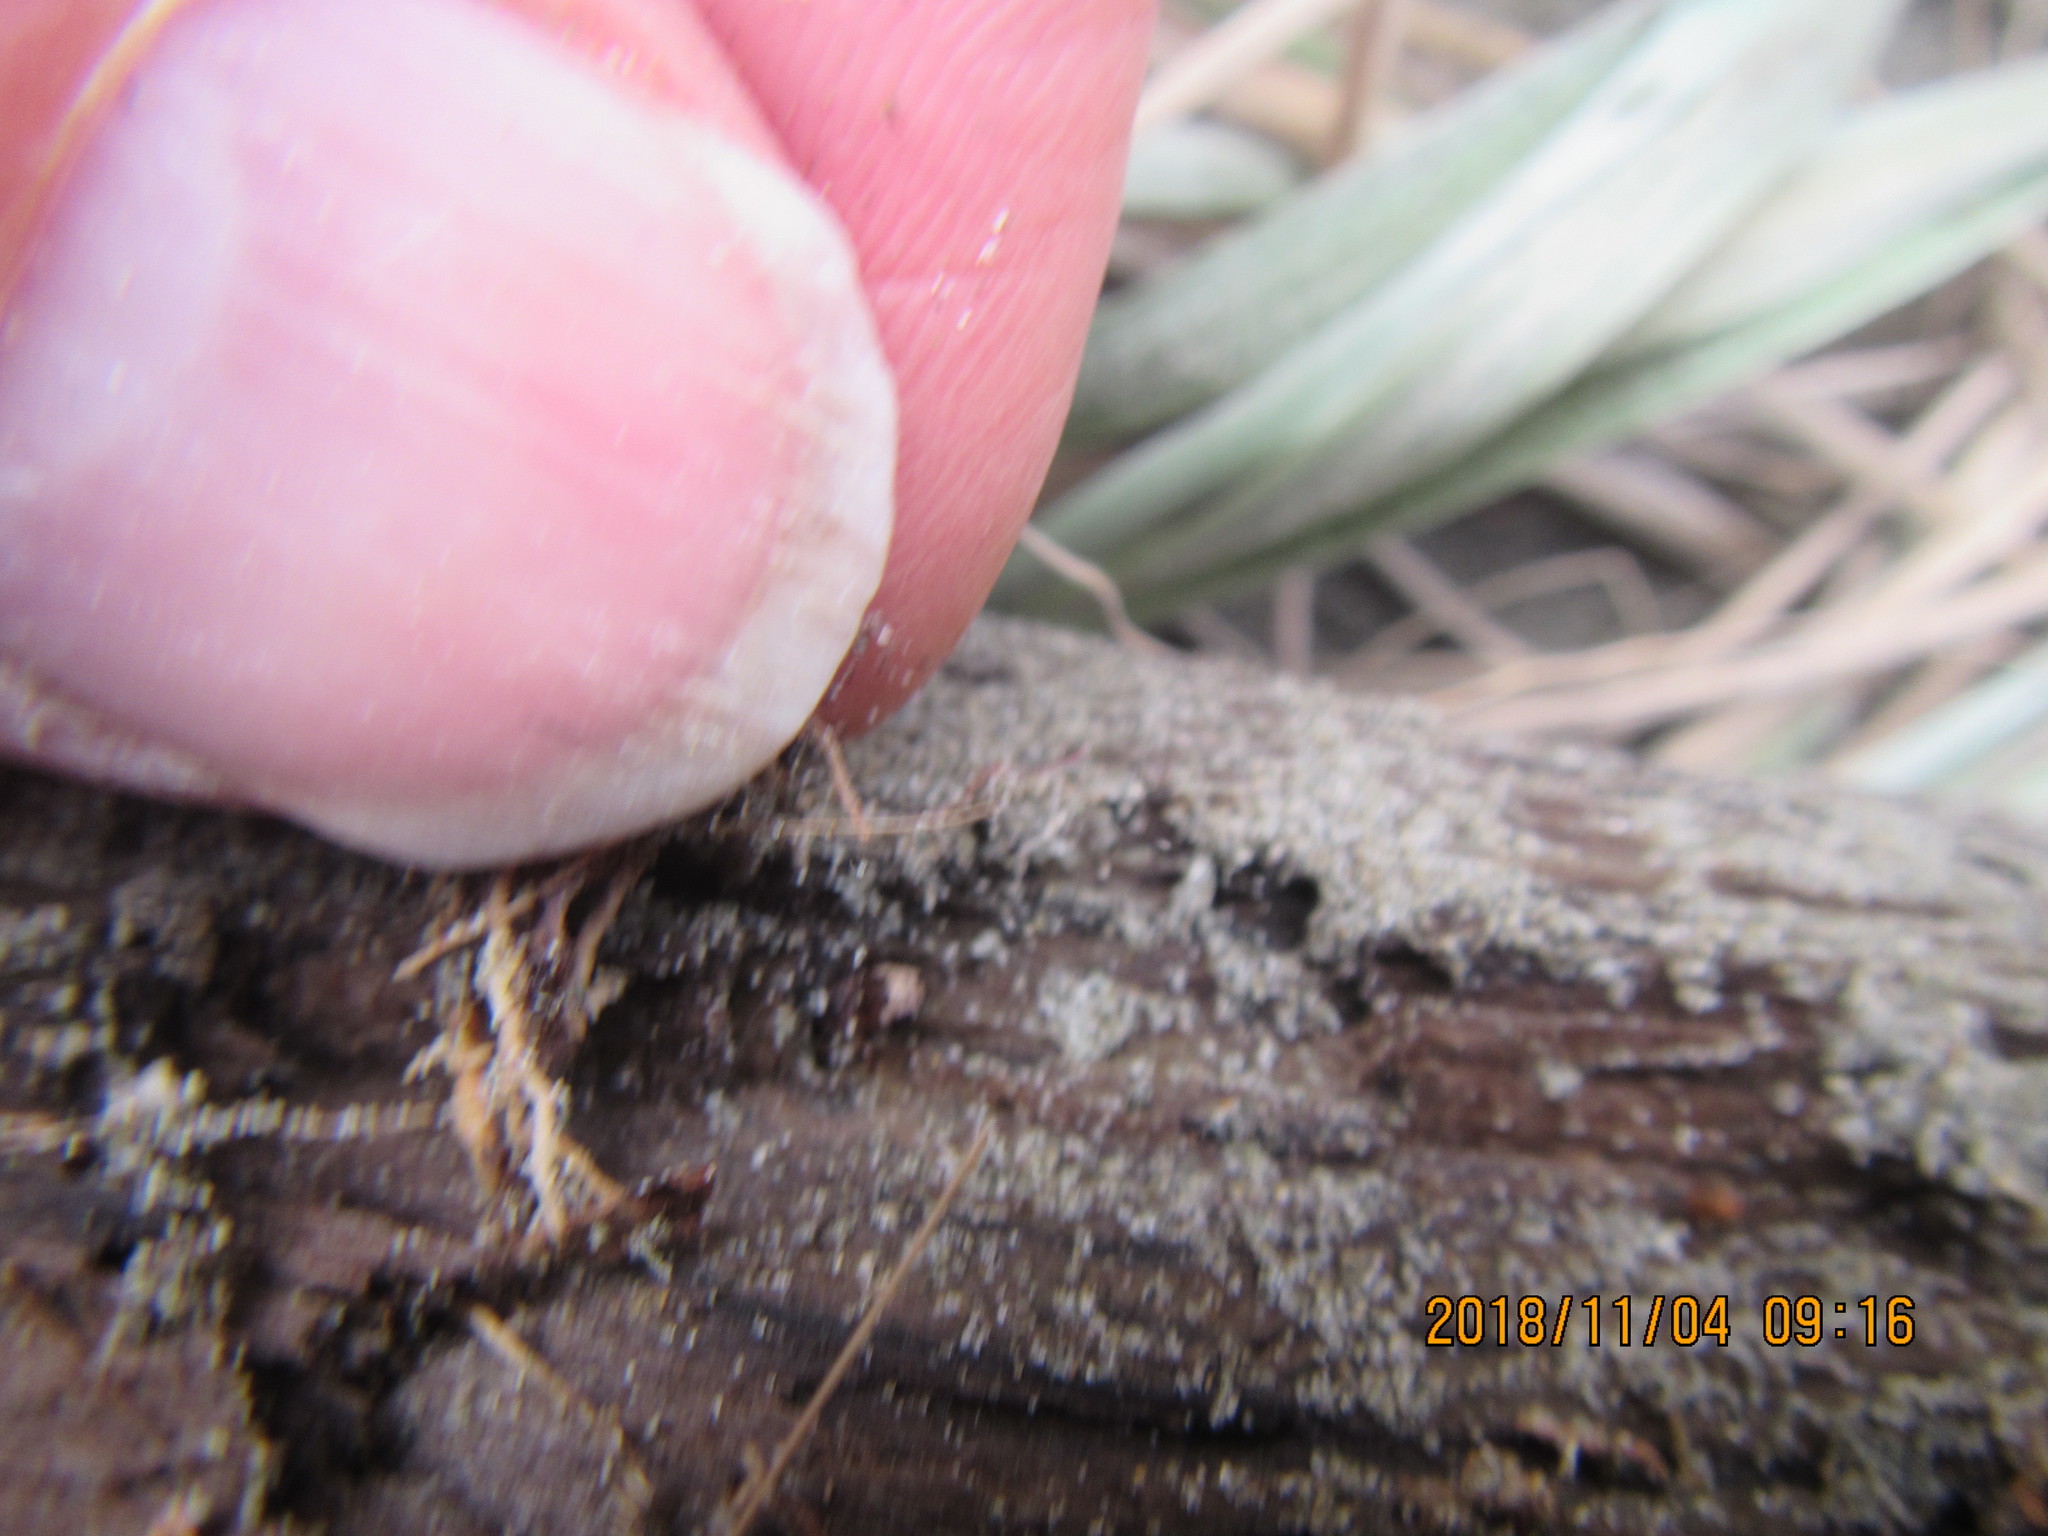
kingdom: Animalia
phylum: Arthropoda
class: Arachnida
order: Araneae
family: Theridiidae
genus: Steatoda
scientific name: Steatoda lepida
